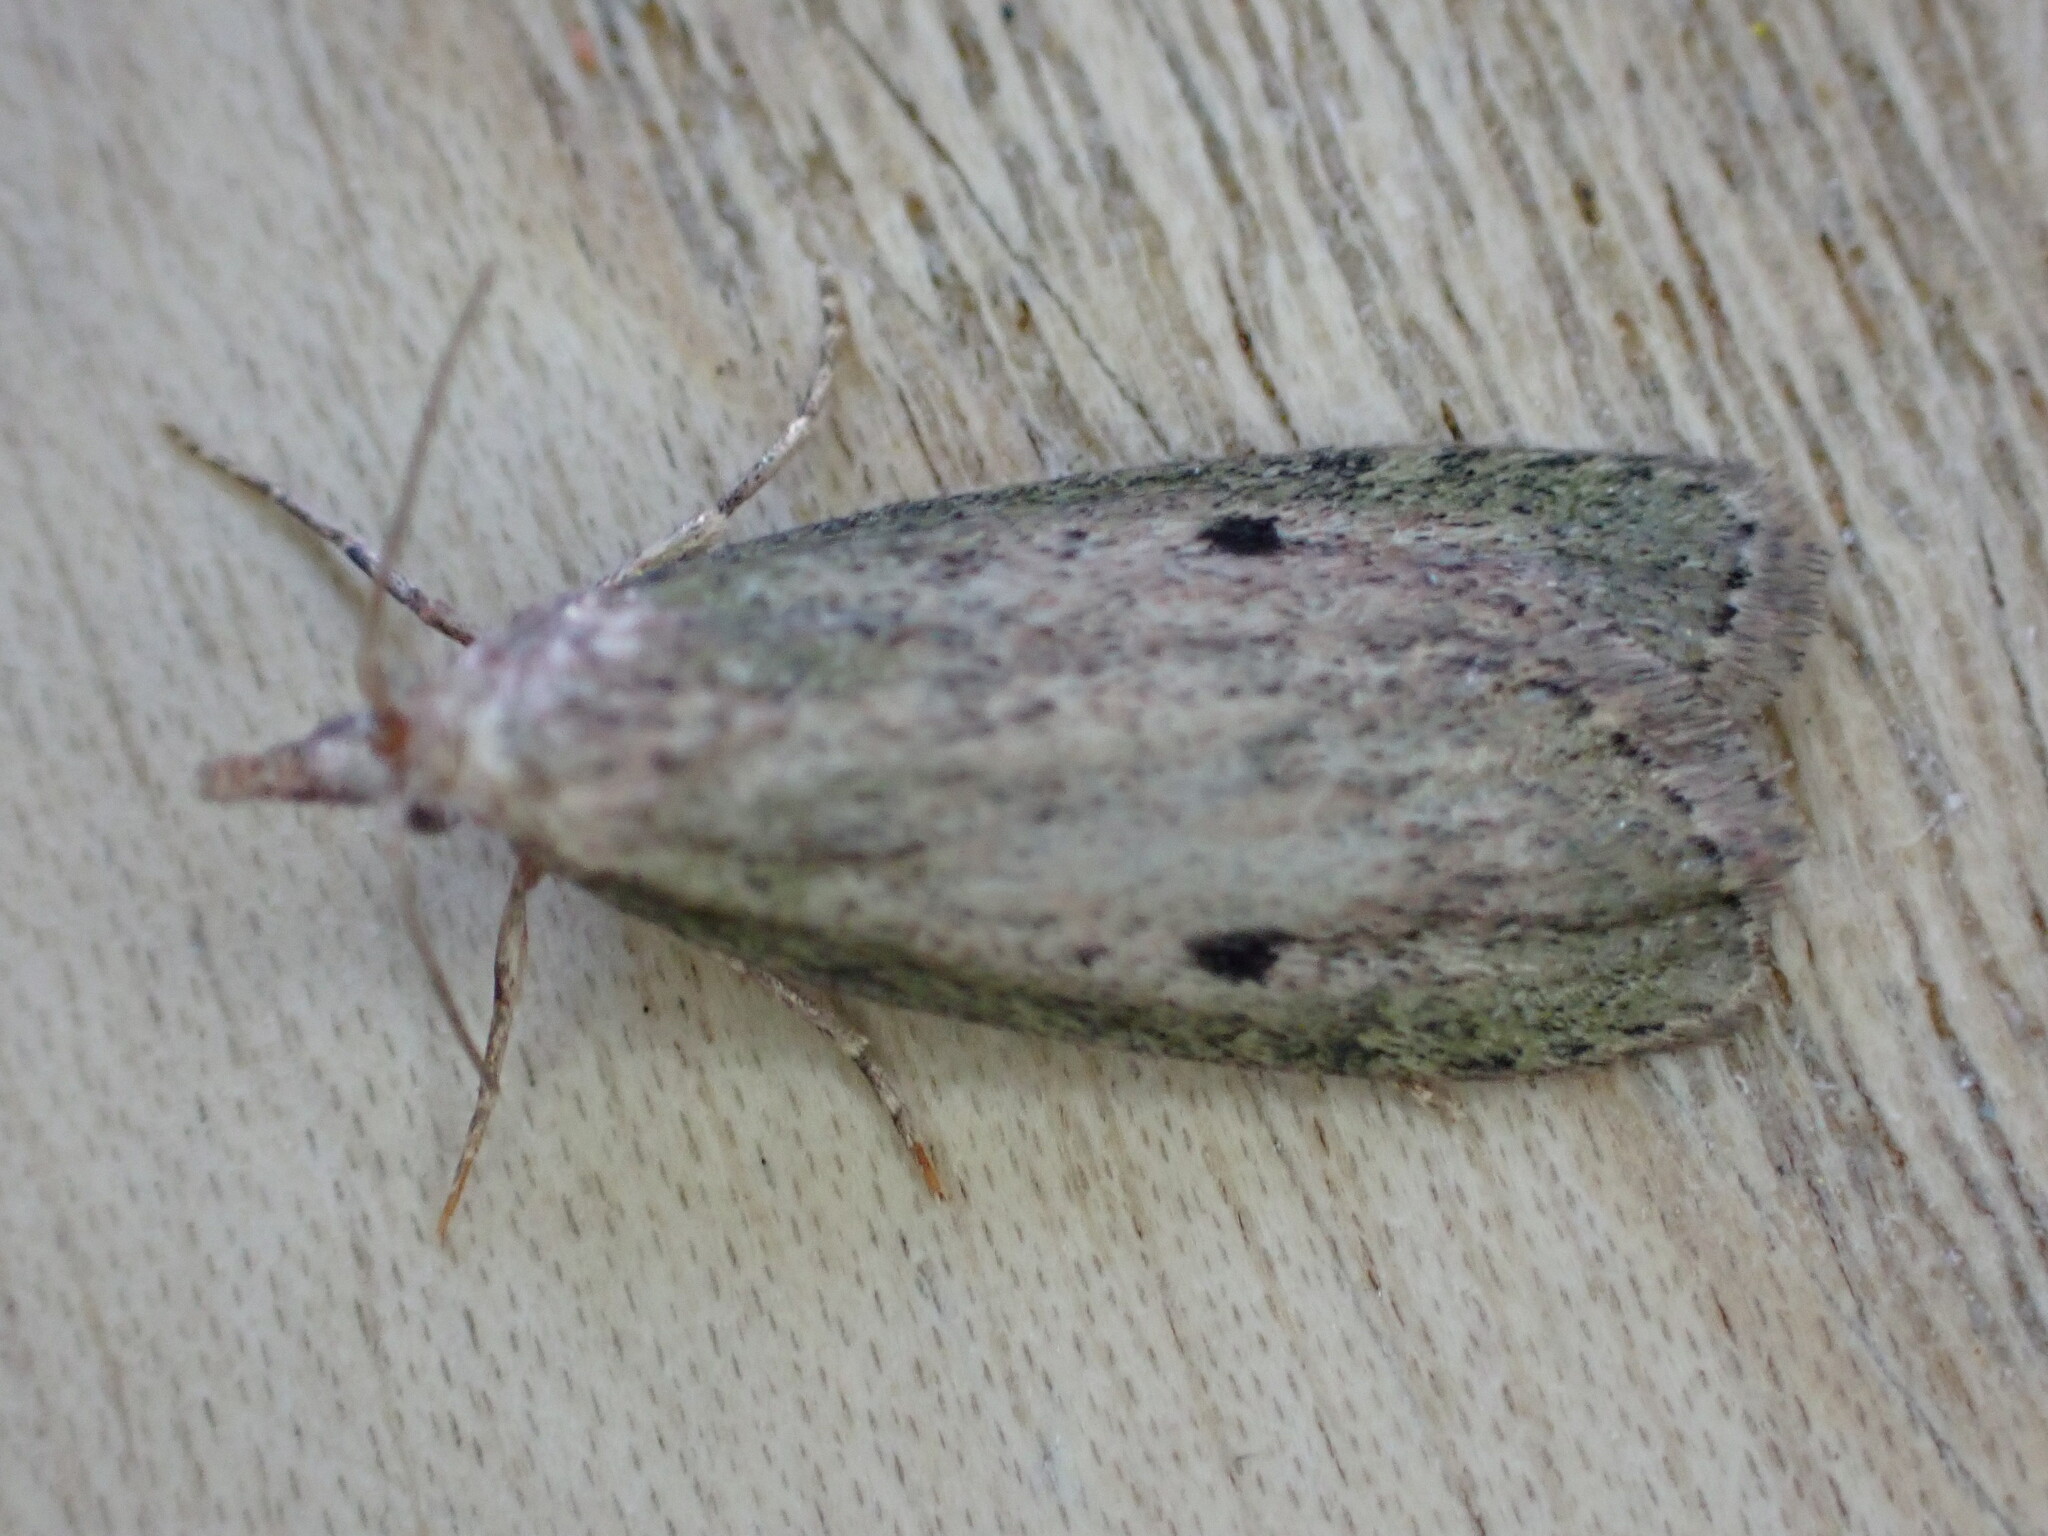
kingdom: Animalia
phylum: Arthropoda
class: Insecta
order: Lepidoptera
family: Pyralidae
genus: Aphomia
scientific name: Aphomia sociella
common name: Bee moth
